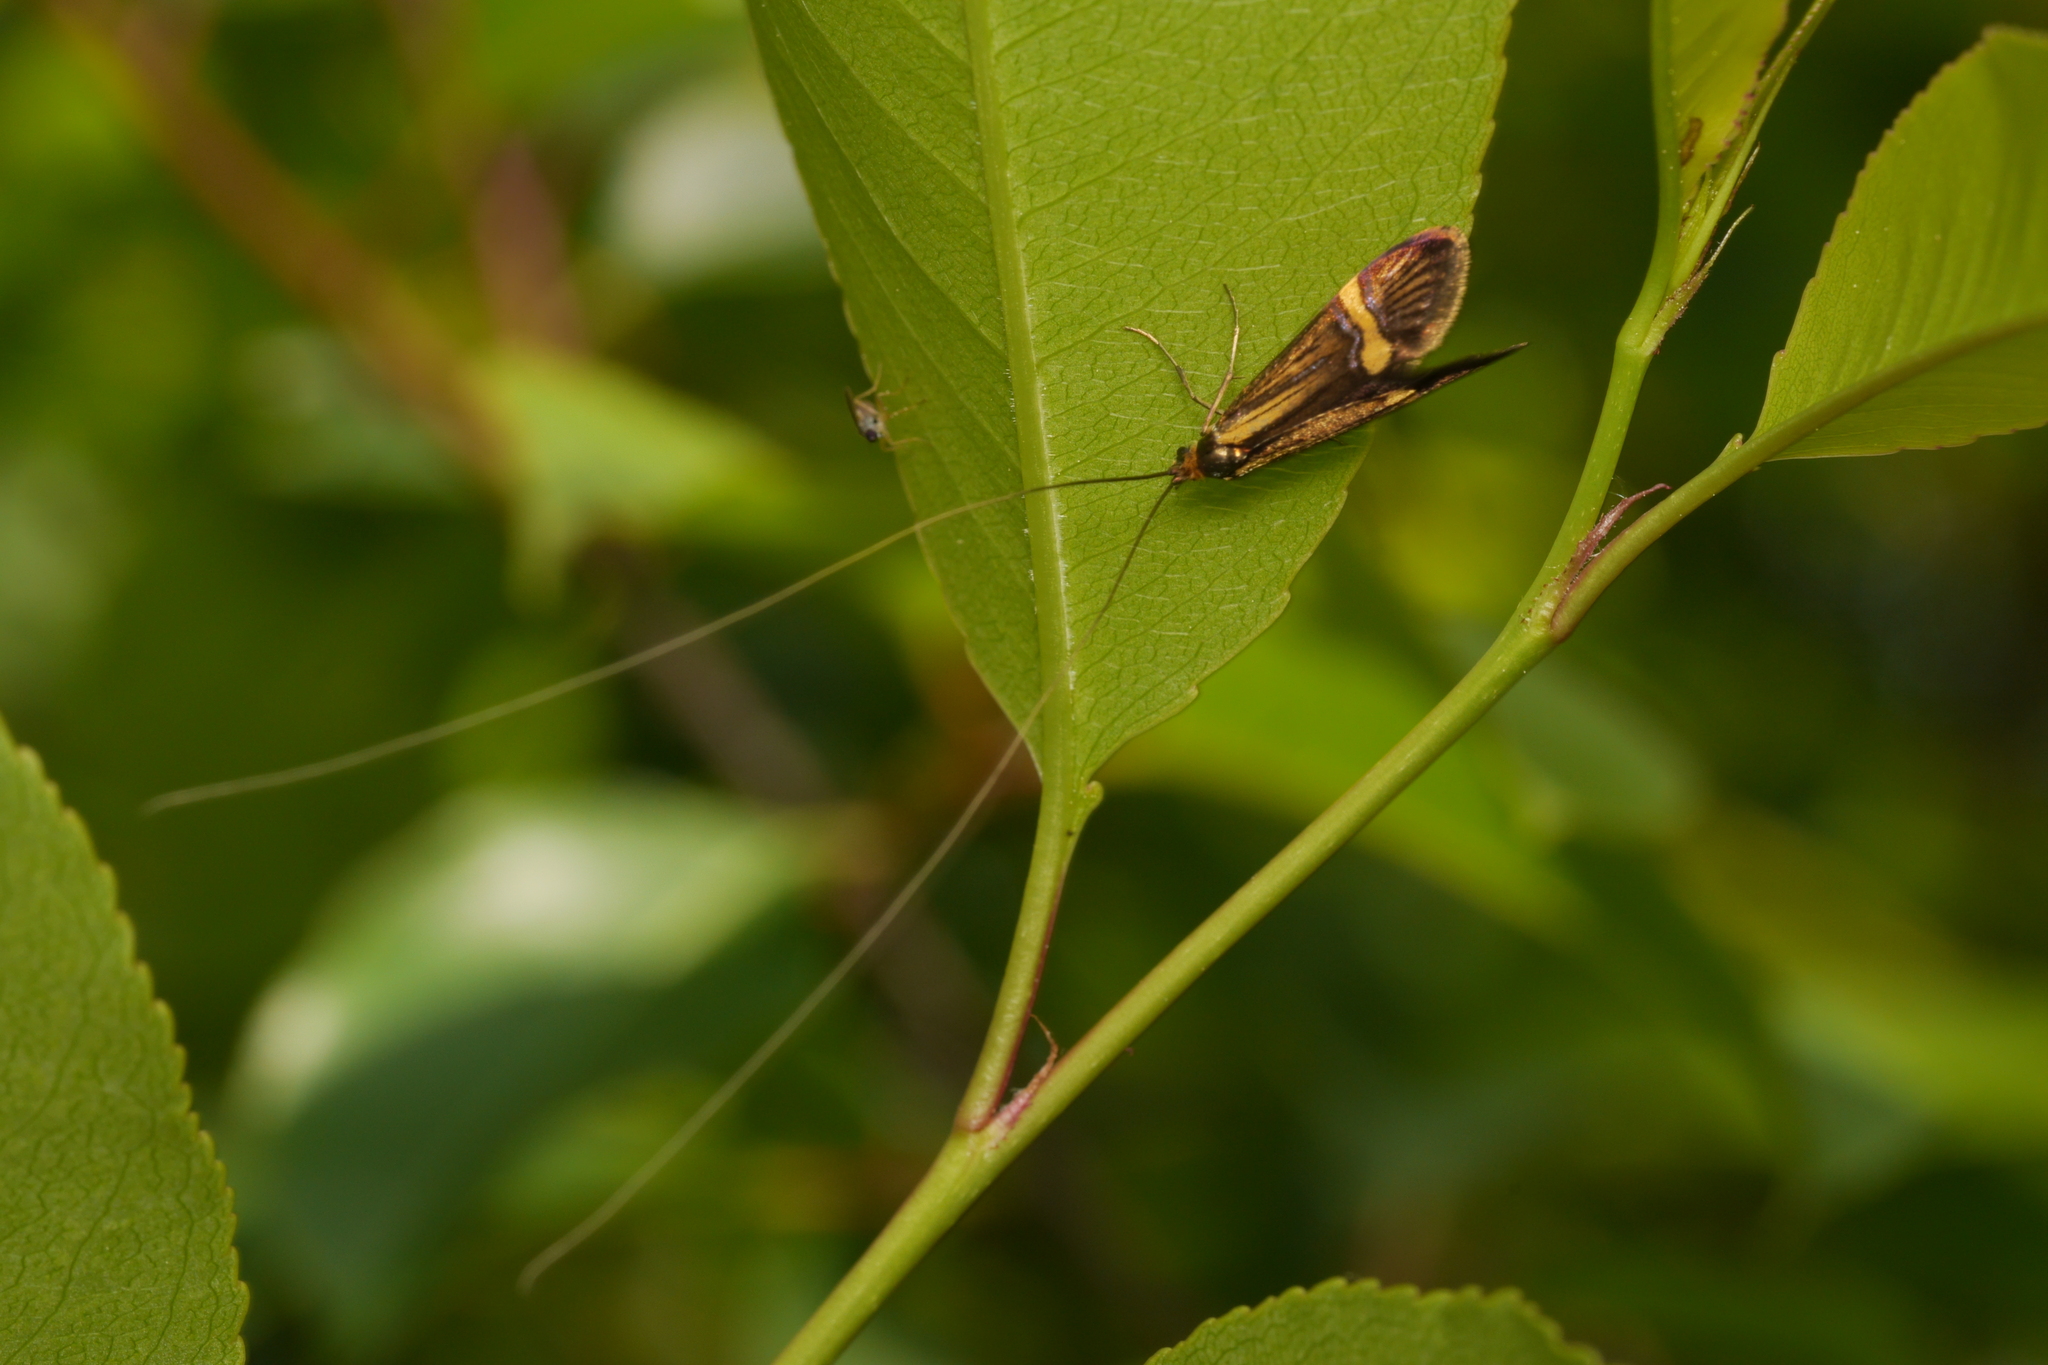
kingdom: Animalia
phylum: Arthropoda
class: Insecta
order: Lepidoptera
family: Adelidae
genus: Nemophora
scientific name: Nemophora
